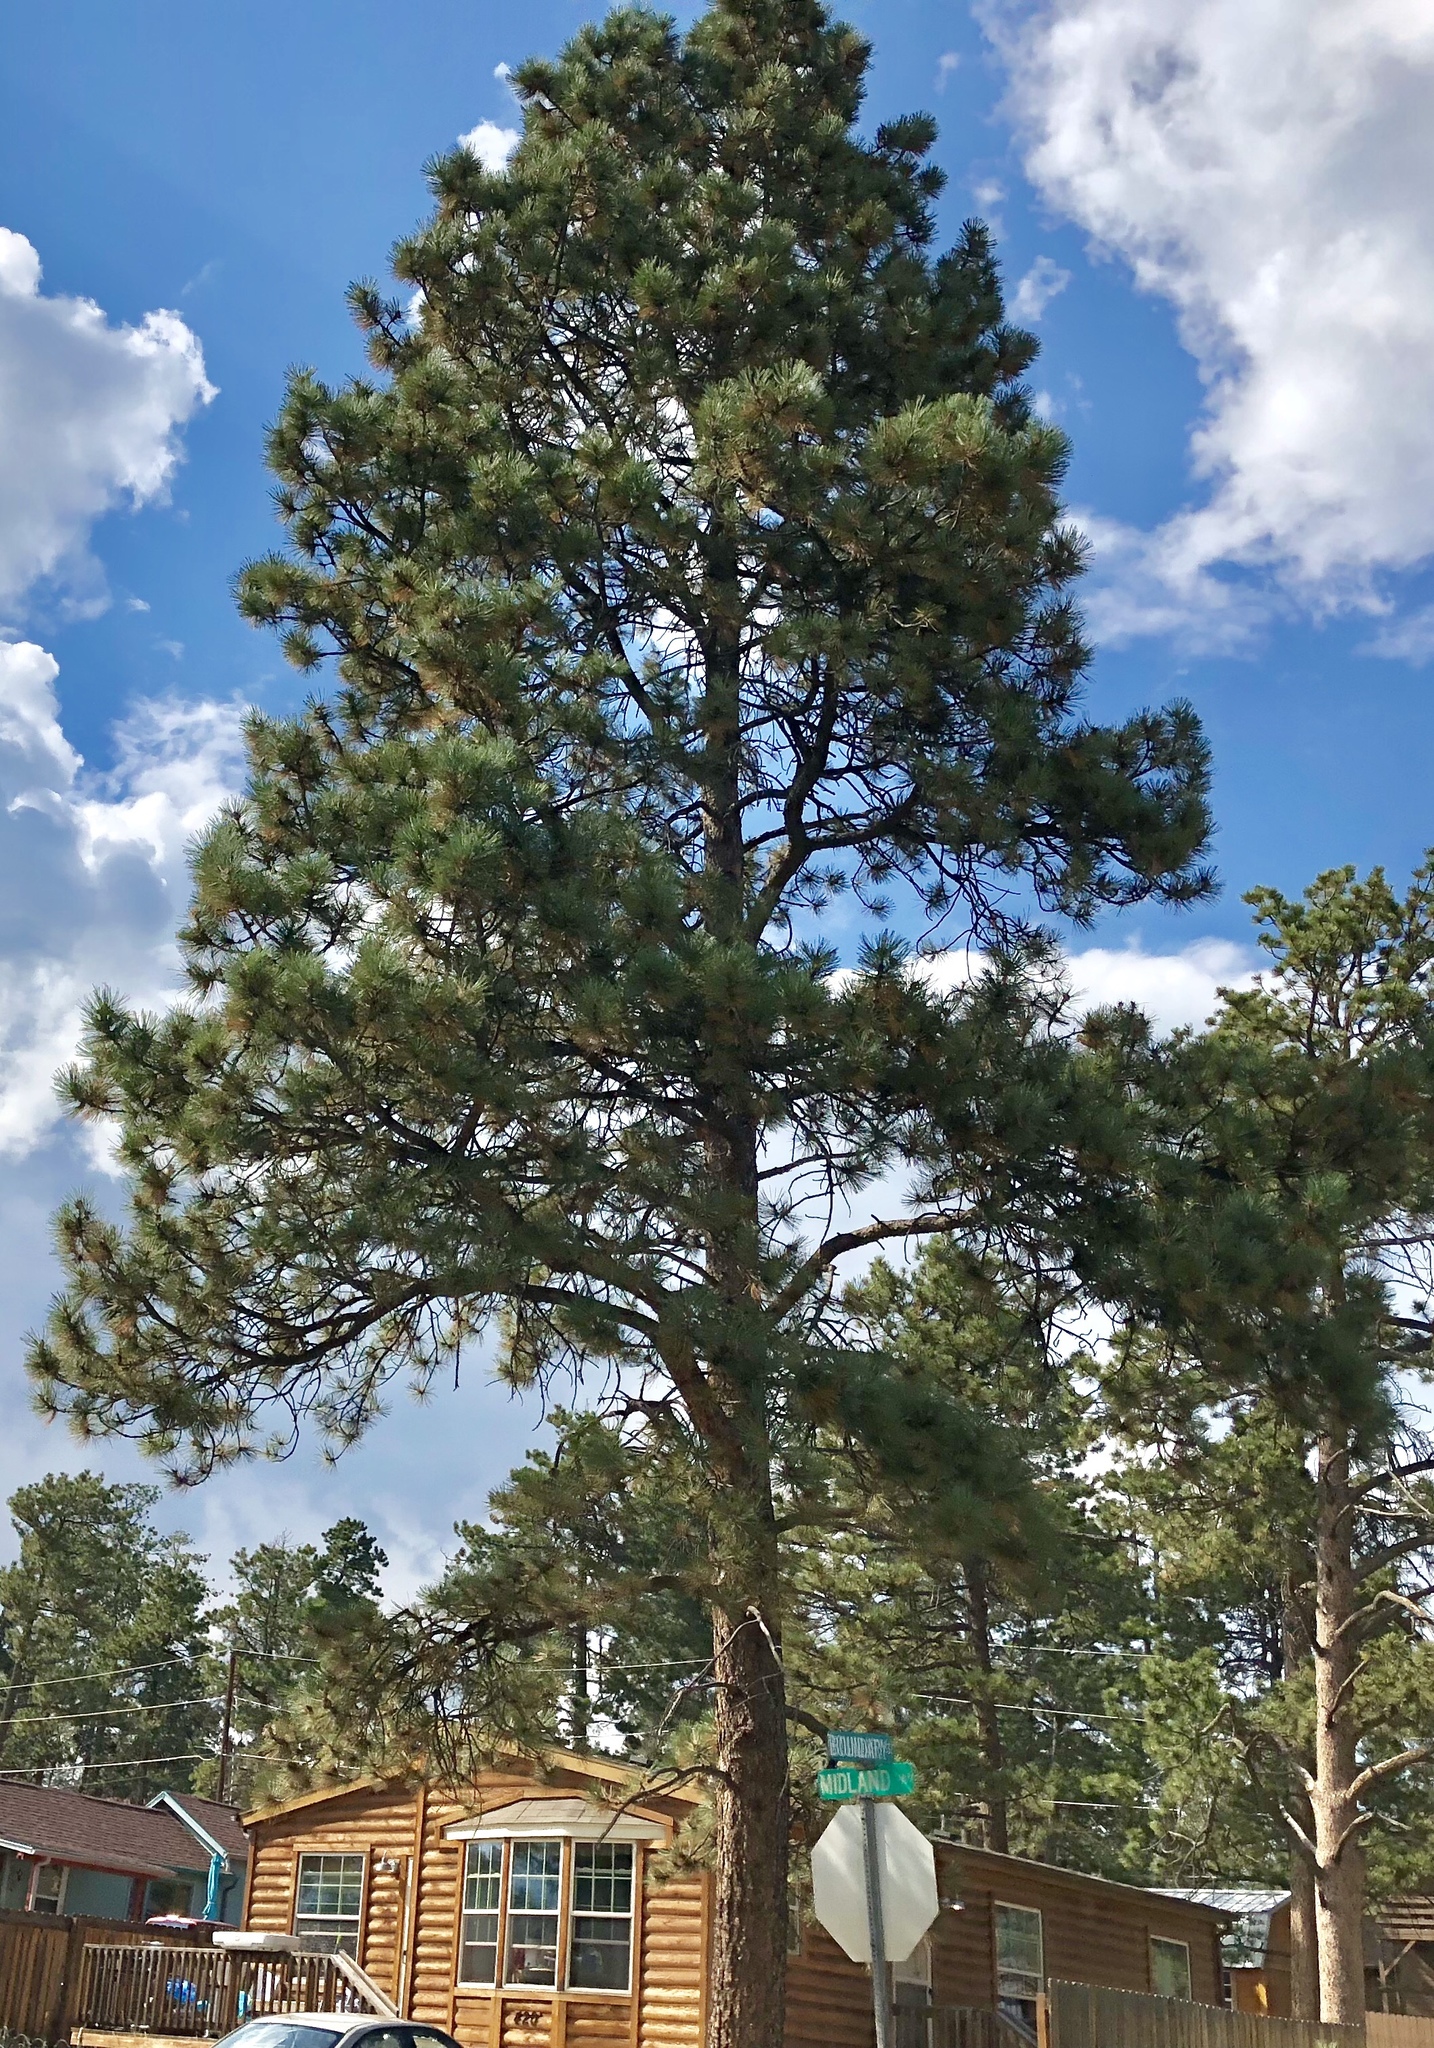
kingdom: Plantae
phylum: Tracheophyta
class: Pinopsida
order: Pinales
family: Pinaceae
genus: Pinus
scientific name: Pinus ponderosa
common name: Western yellow-pine
